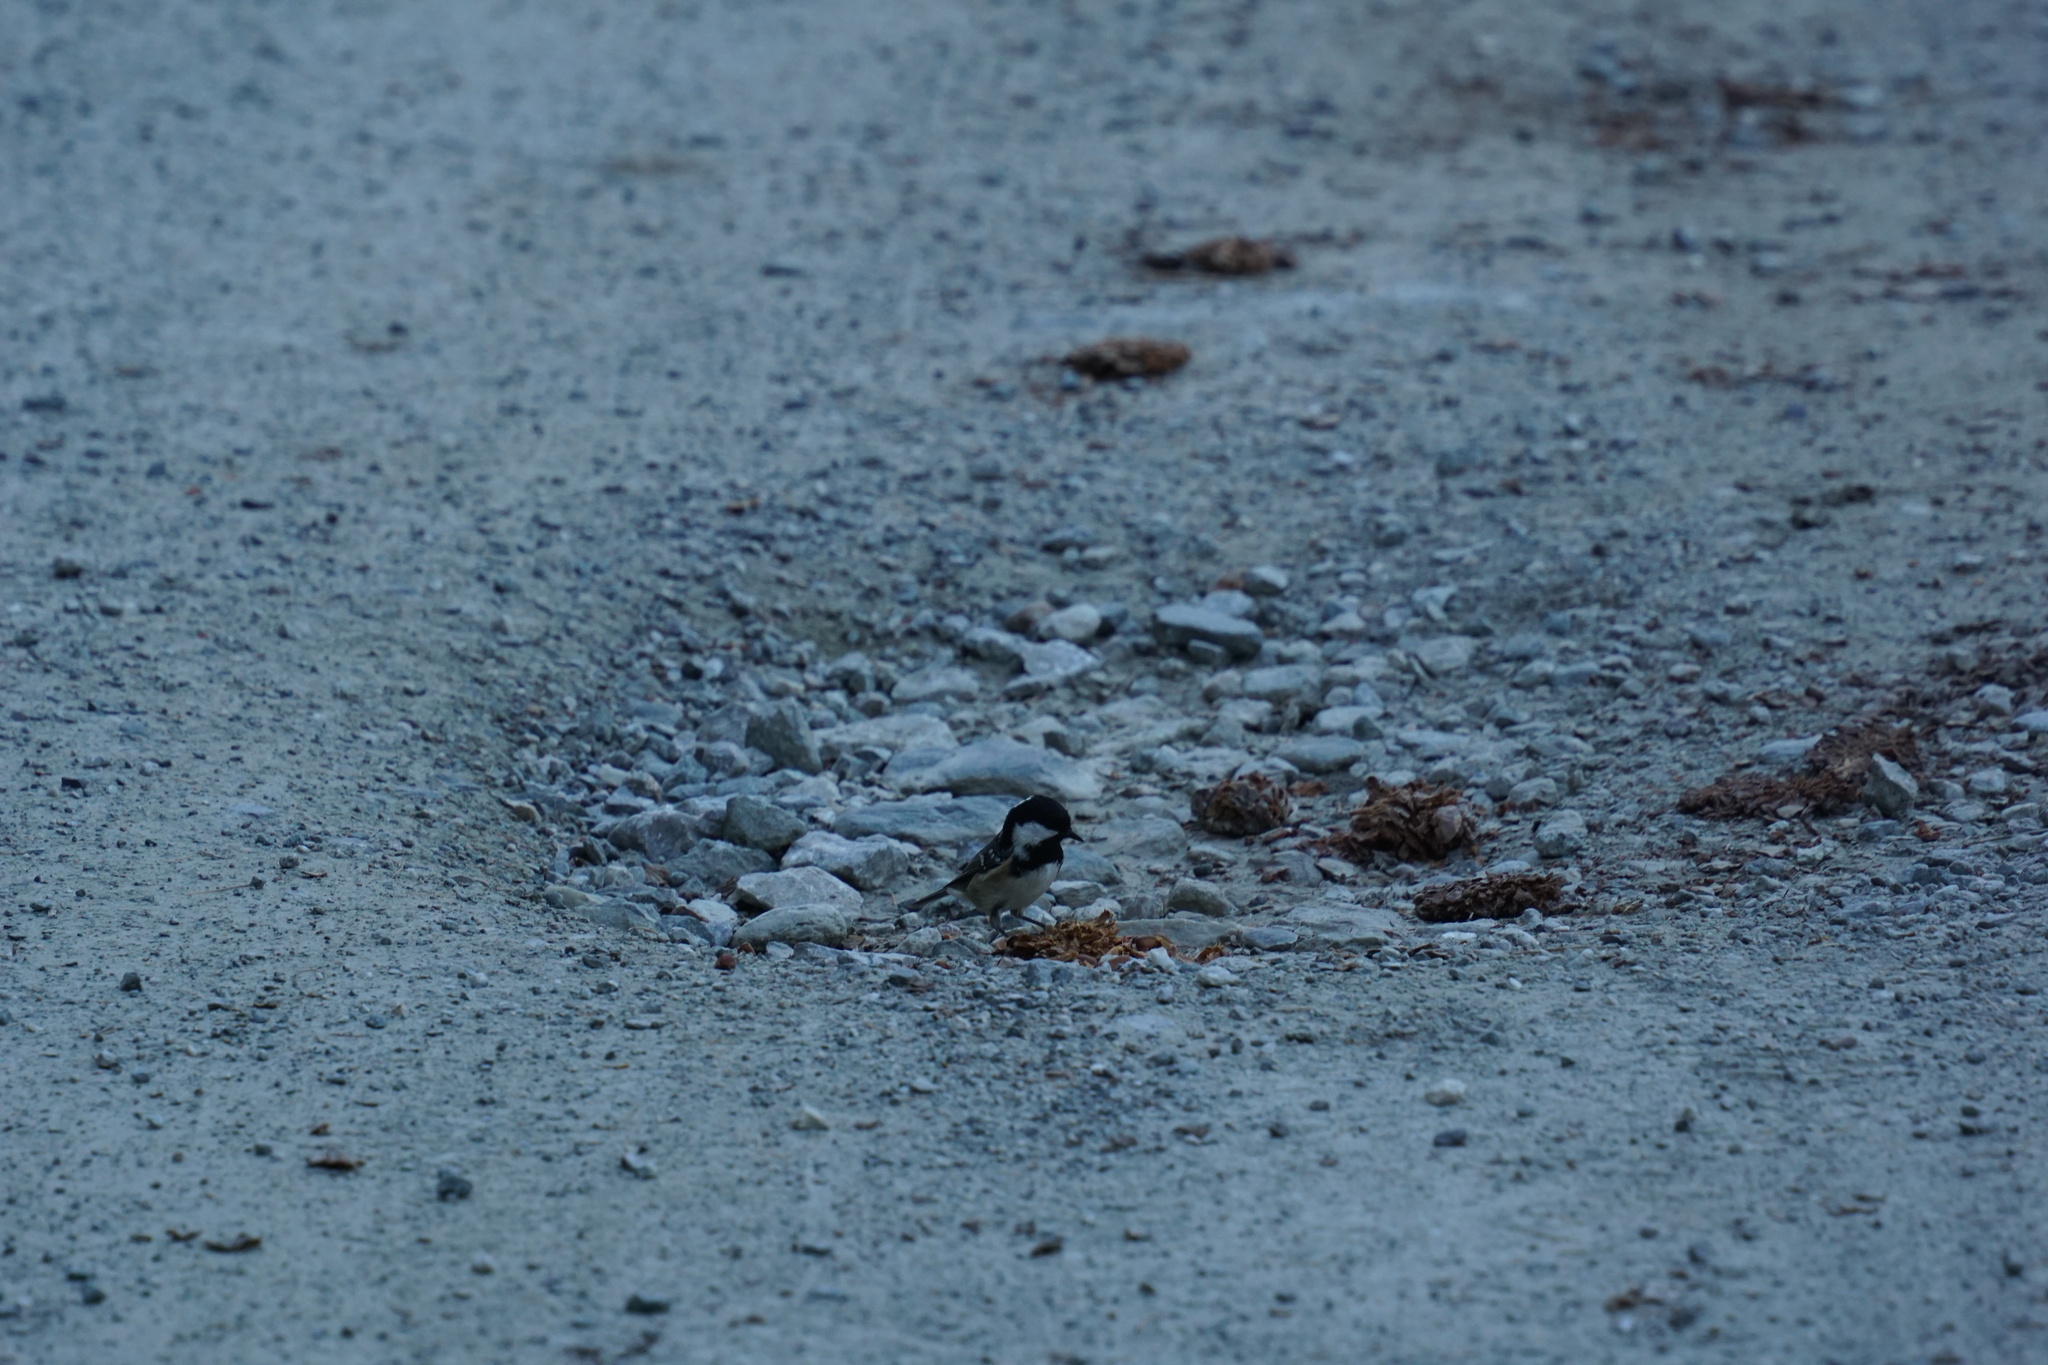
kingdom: Animalia
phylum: Chordata
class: Aves
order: Passeriformes
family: Paridae
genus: Periparus
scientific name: Periparus ater
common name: Coal tit
